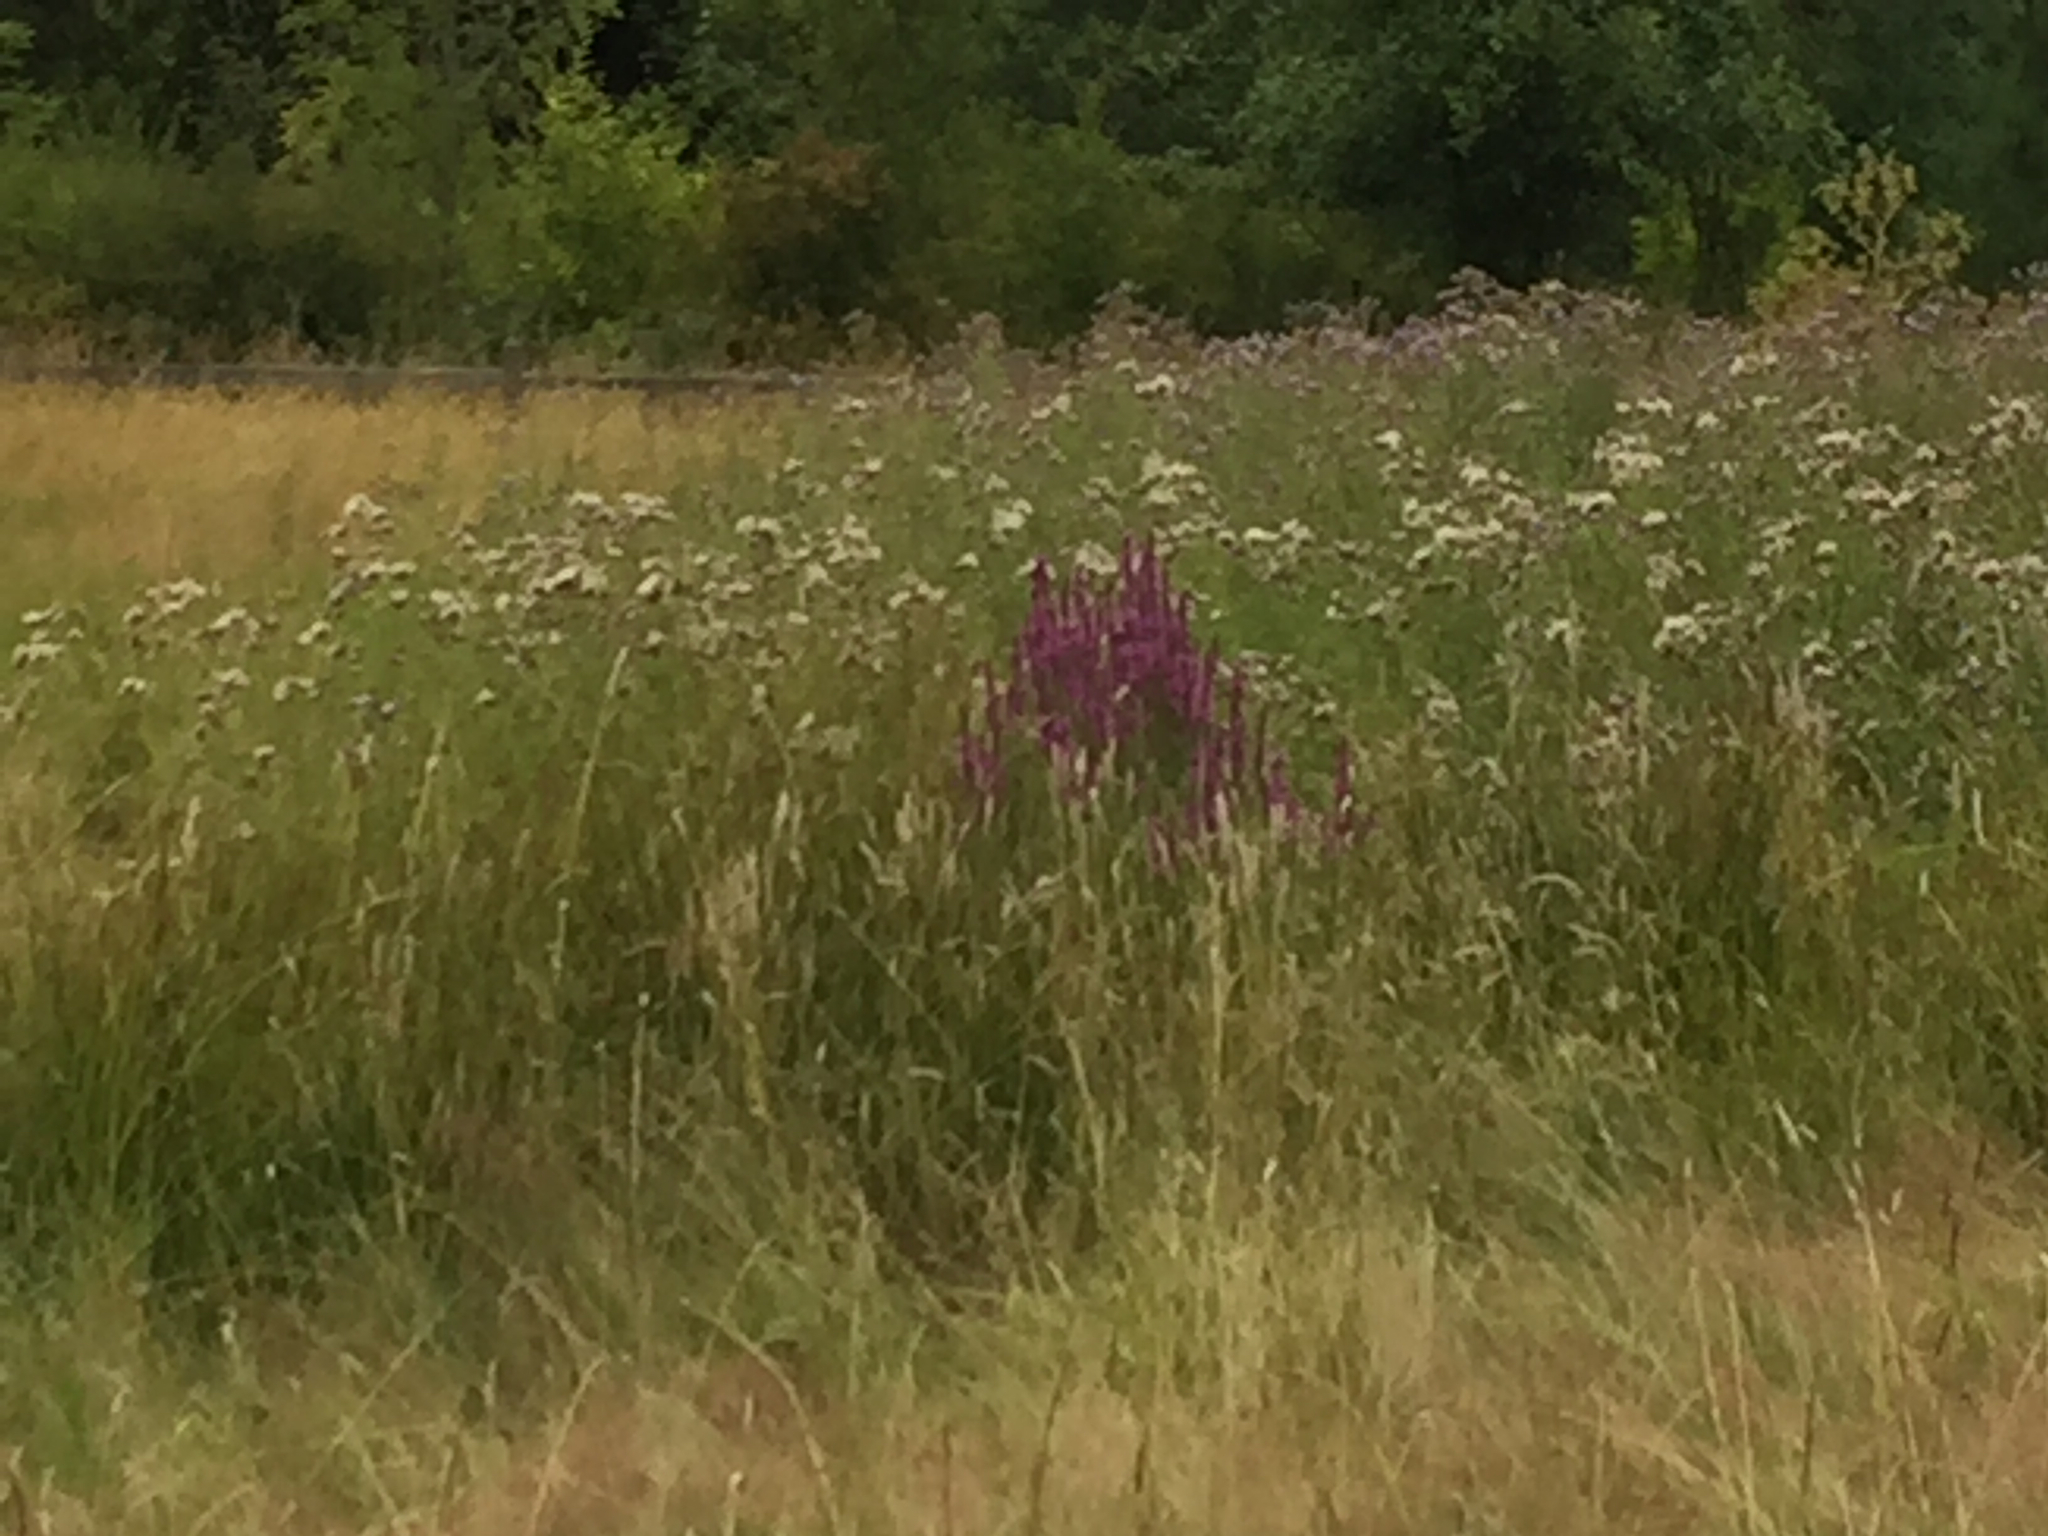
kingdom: Plantae
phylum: Tracheophyta
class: Magnoliopsida
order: Myrtales
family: Lythraceae
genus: Lythrum
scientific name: Lythrum salicaria
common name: Purple loosestrife
